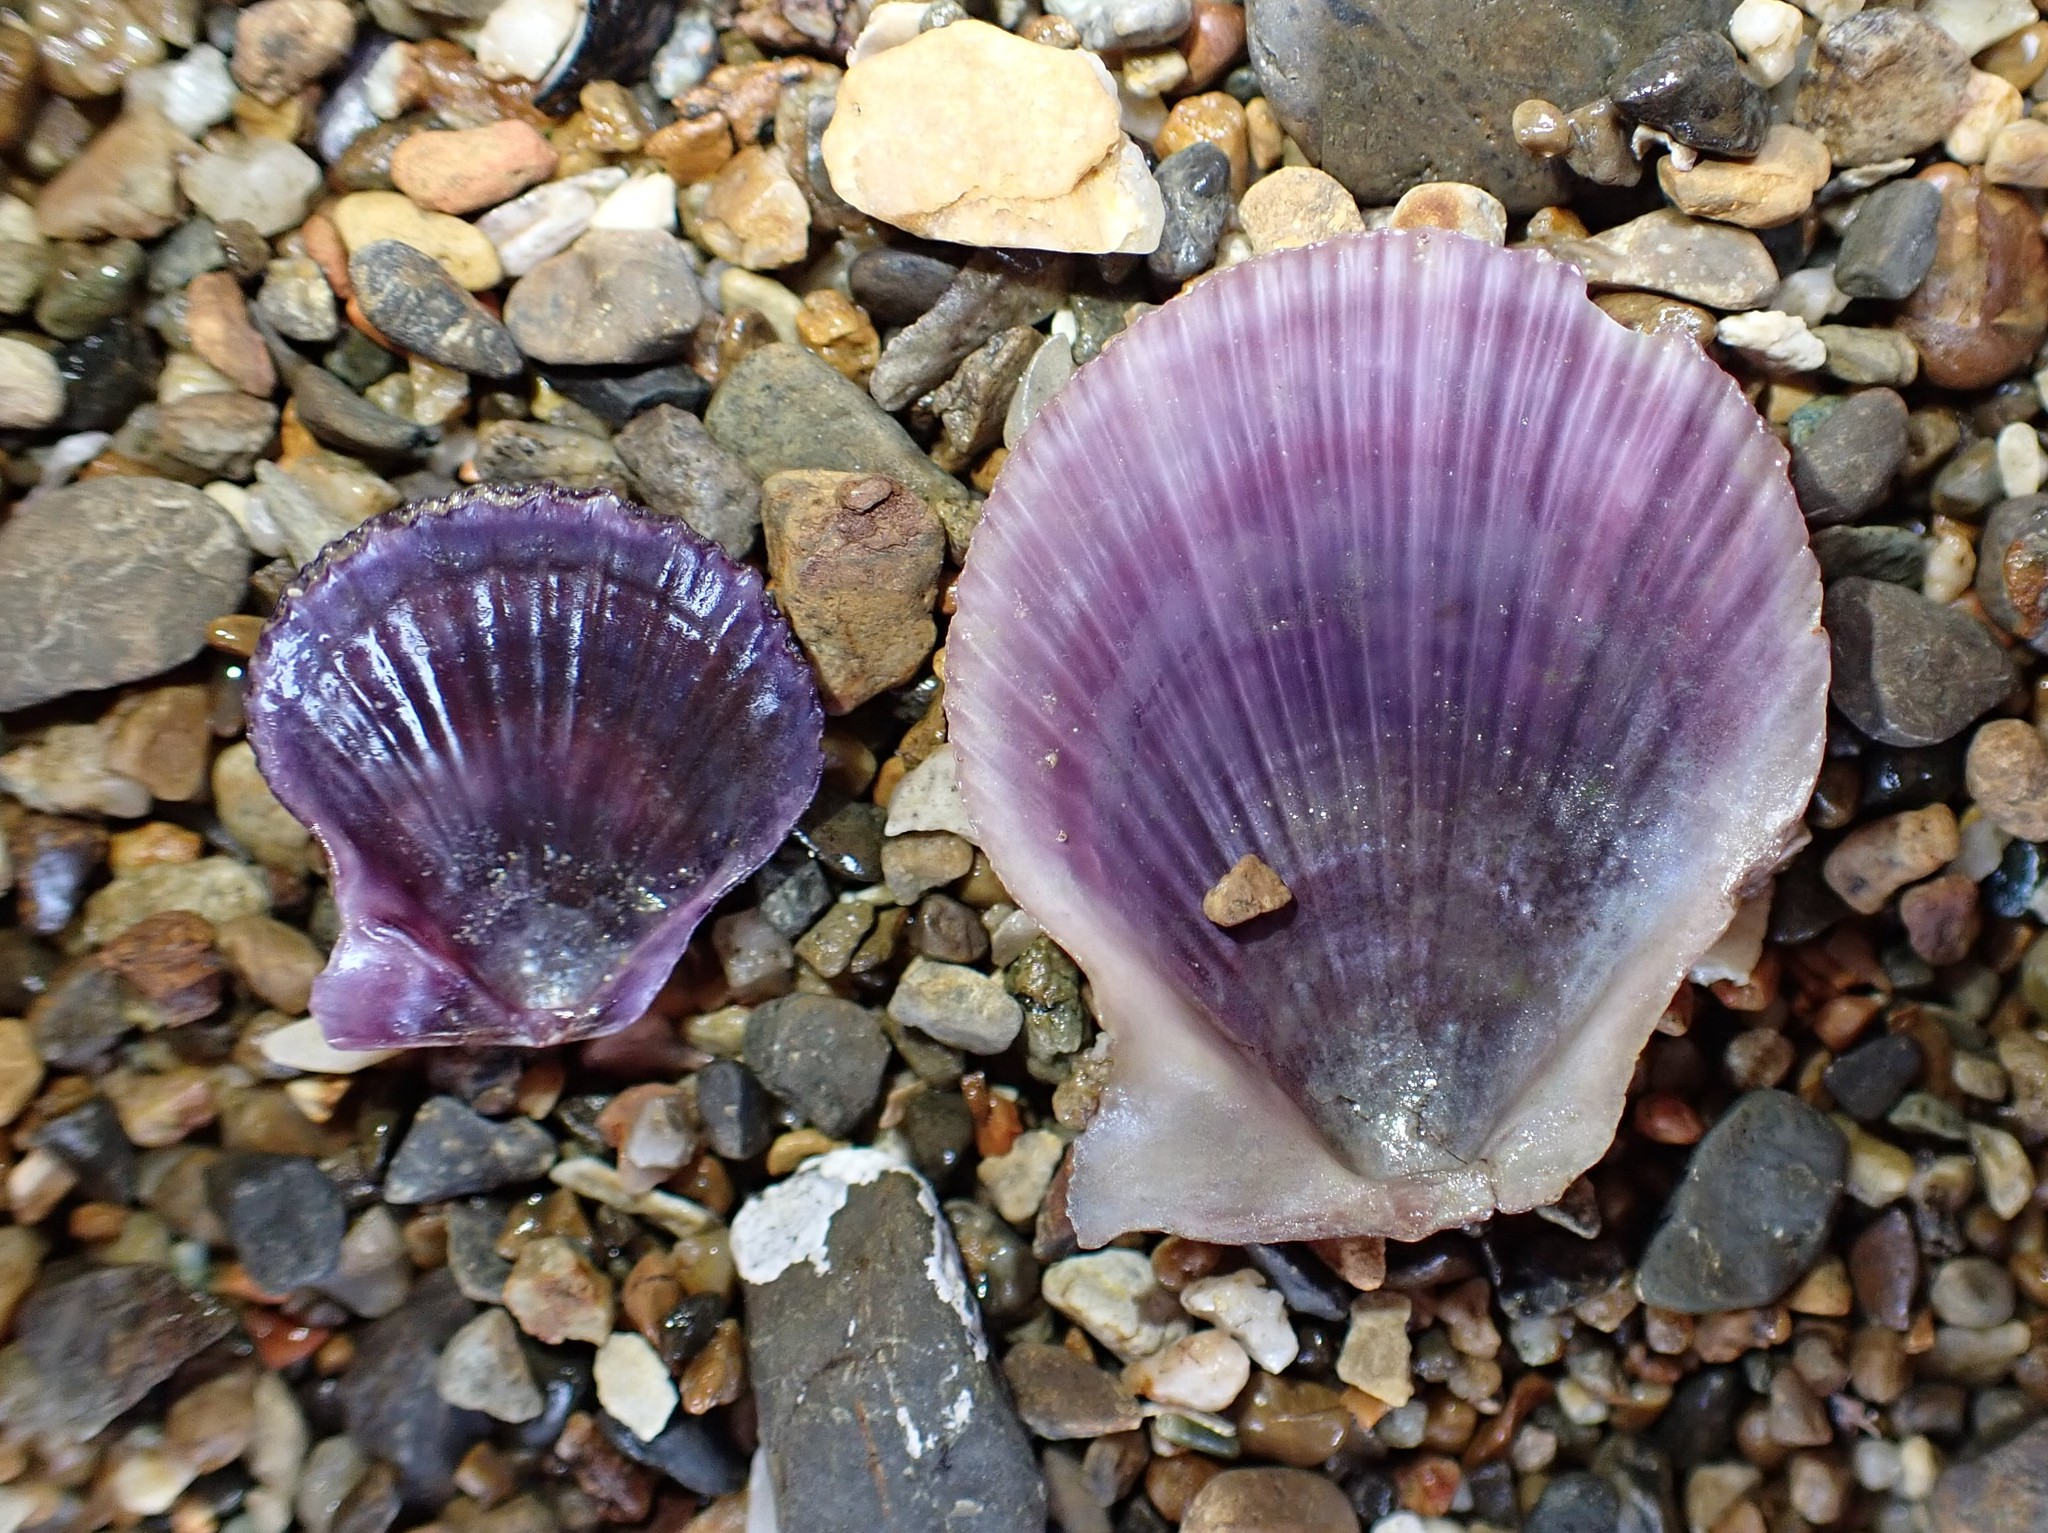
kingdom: Animalia
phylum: Mollusca
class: Bivalvia
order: Pectinida
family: Pectinidae
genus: Talochlamys
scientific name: Talochlamys zelandiae
